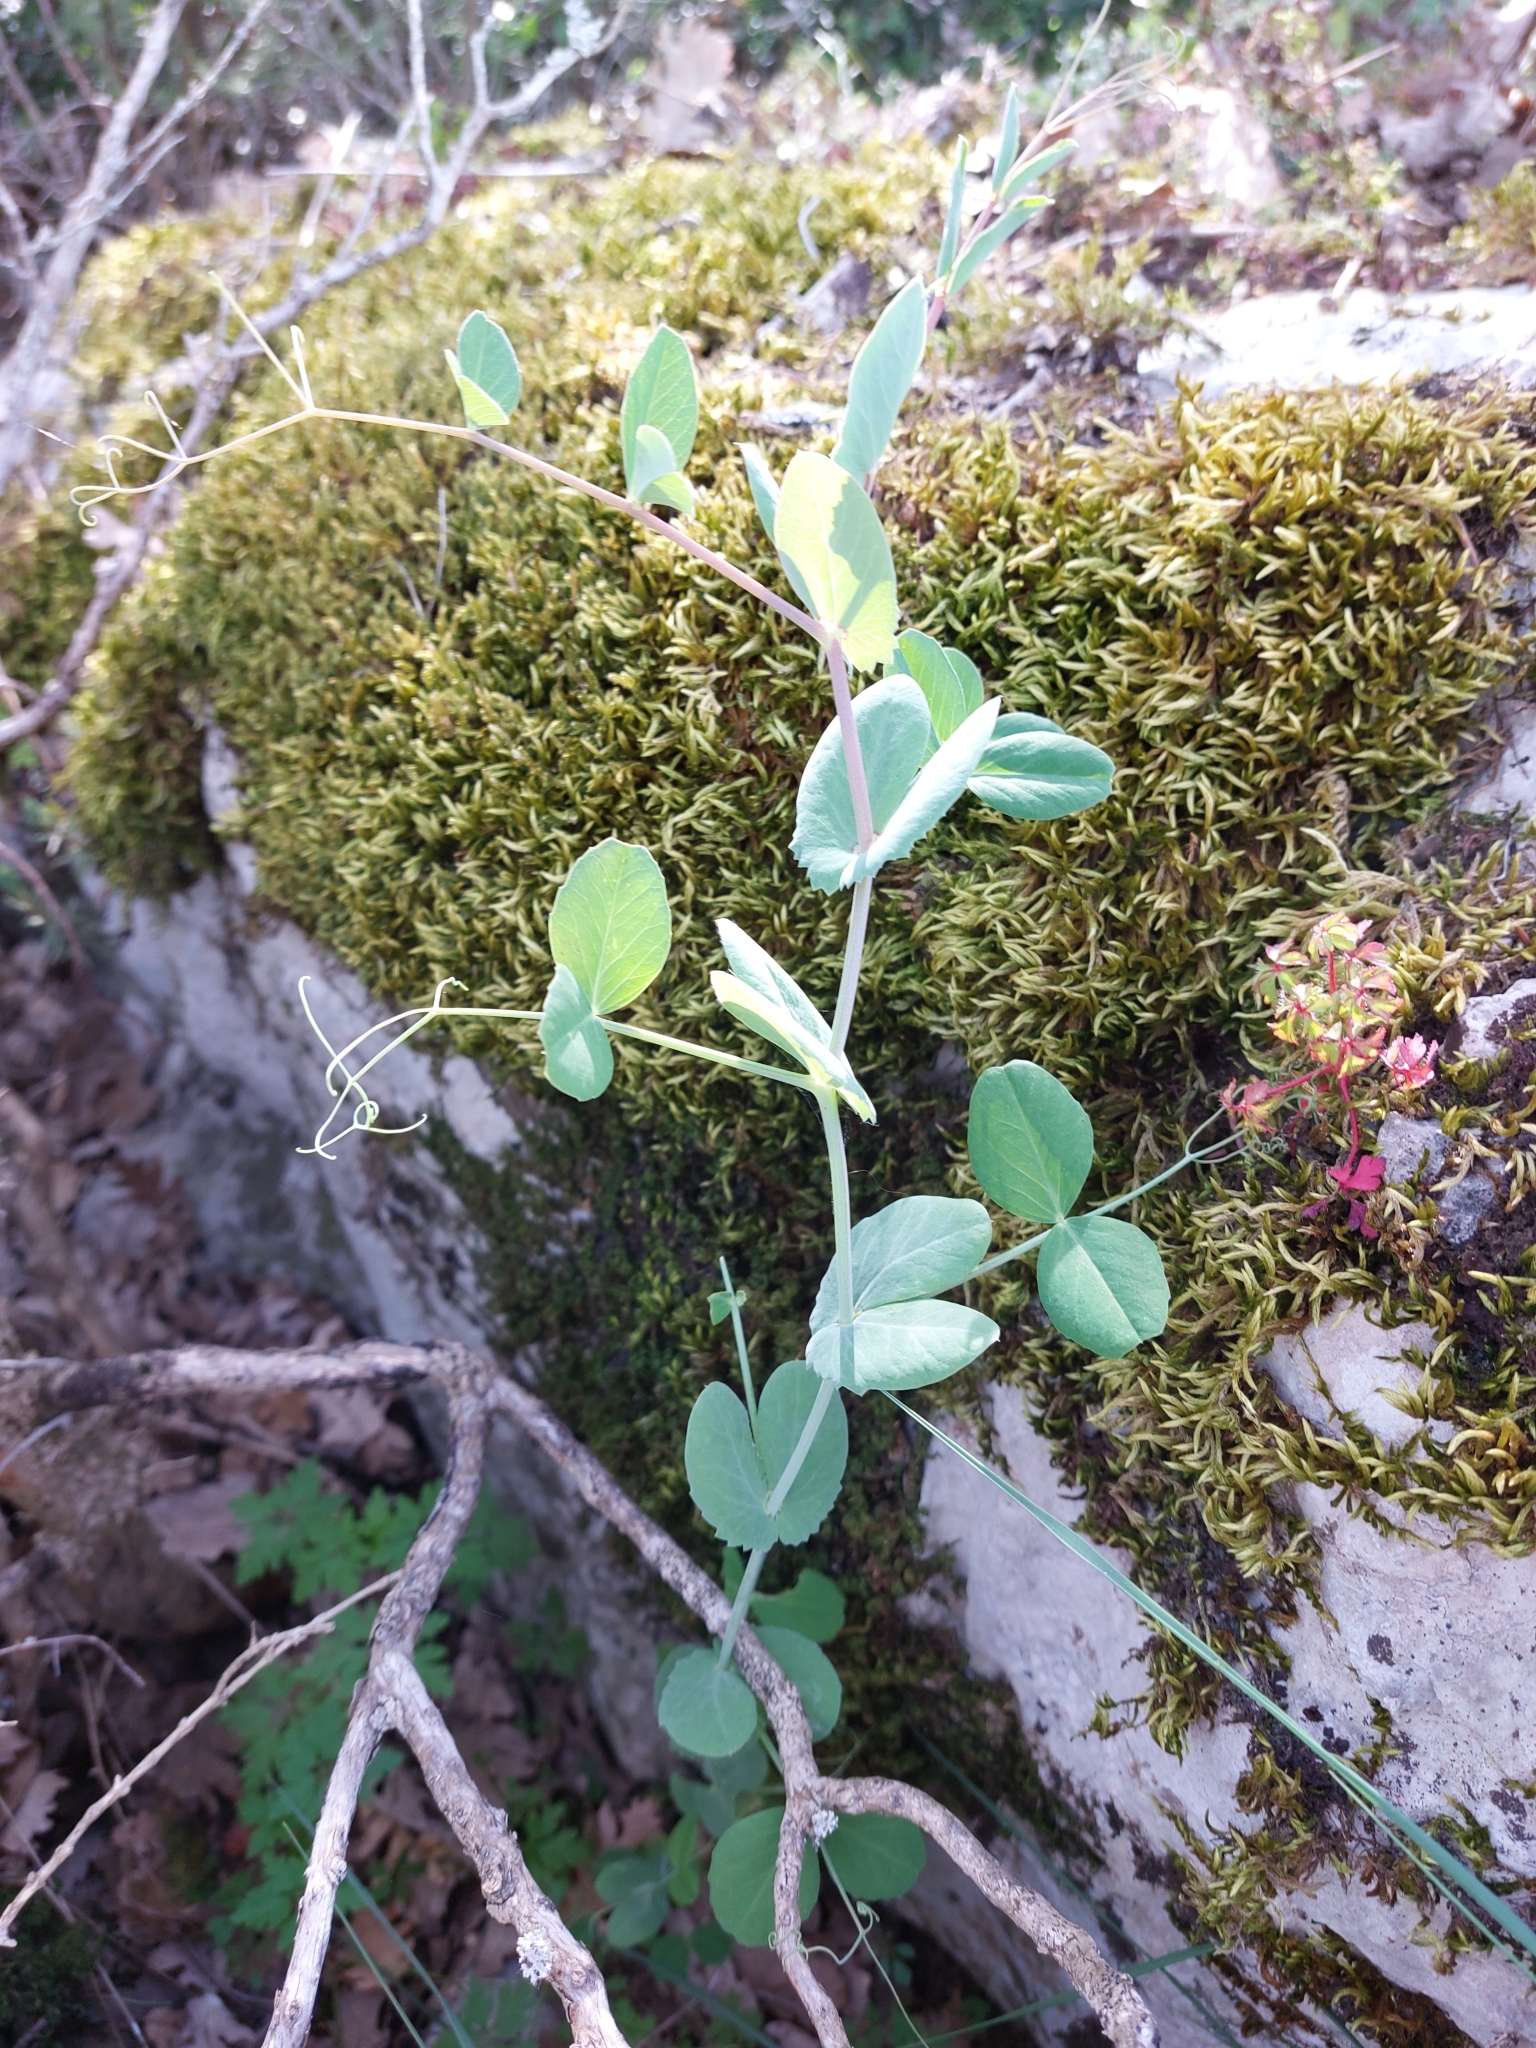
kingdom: Plantae
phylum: Tracheophyta
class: Magnoliopsida
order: Fabales
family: Fabaceae
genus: Lathyrus
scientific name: Lathyrus oleraceus
